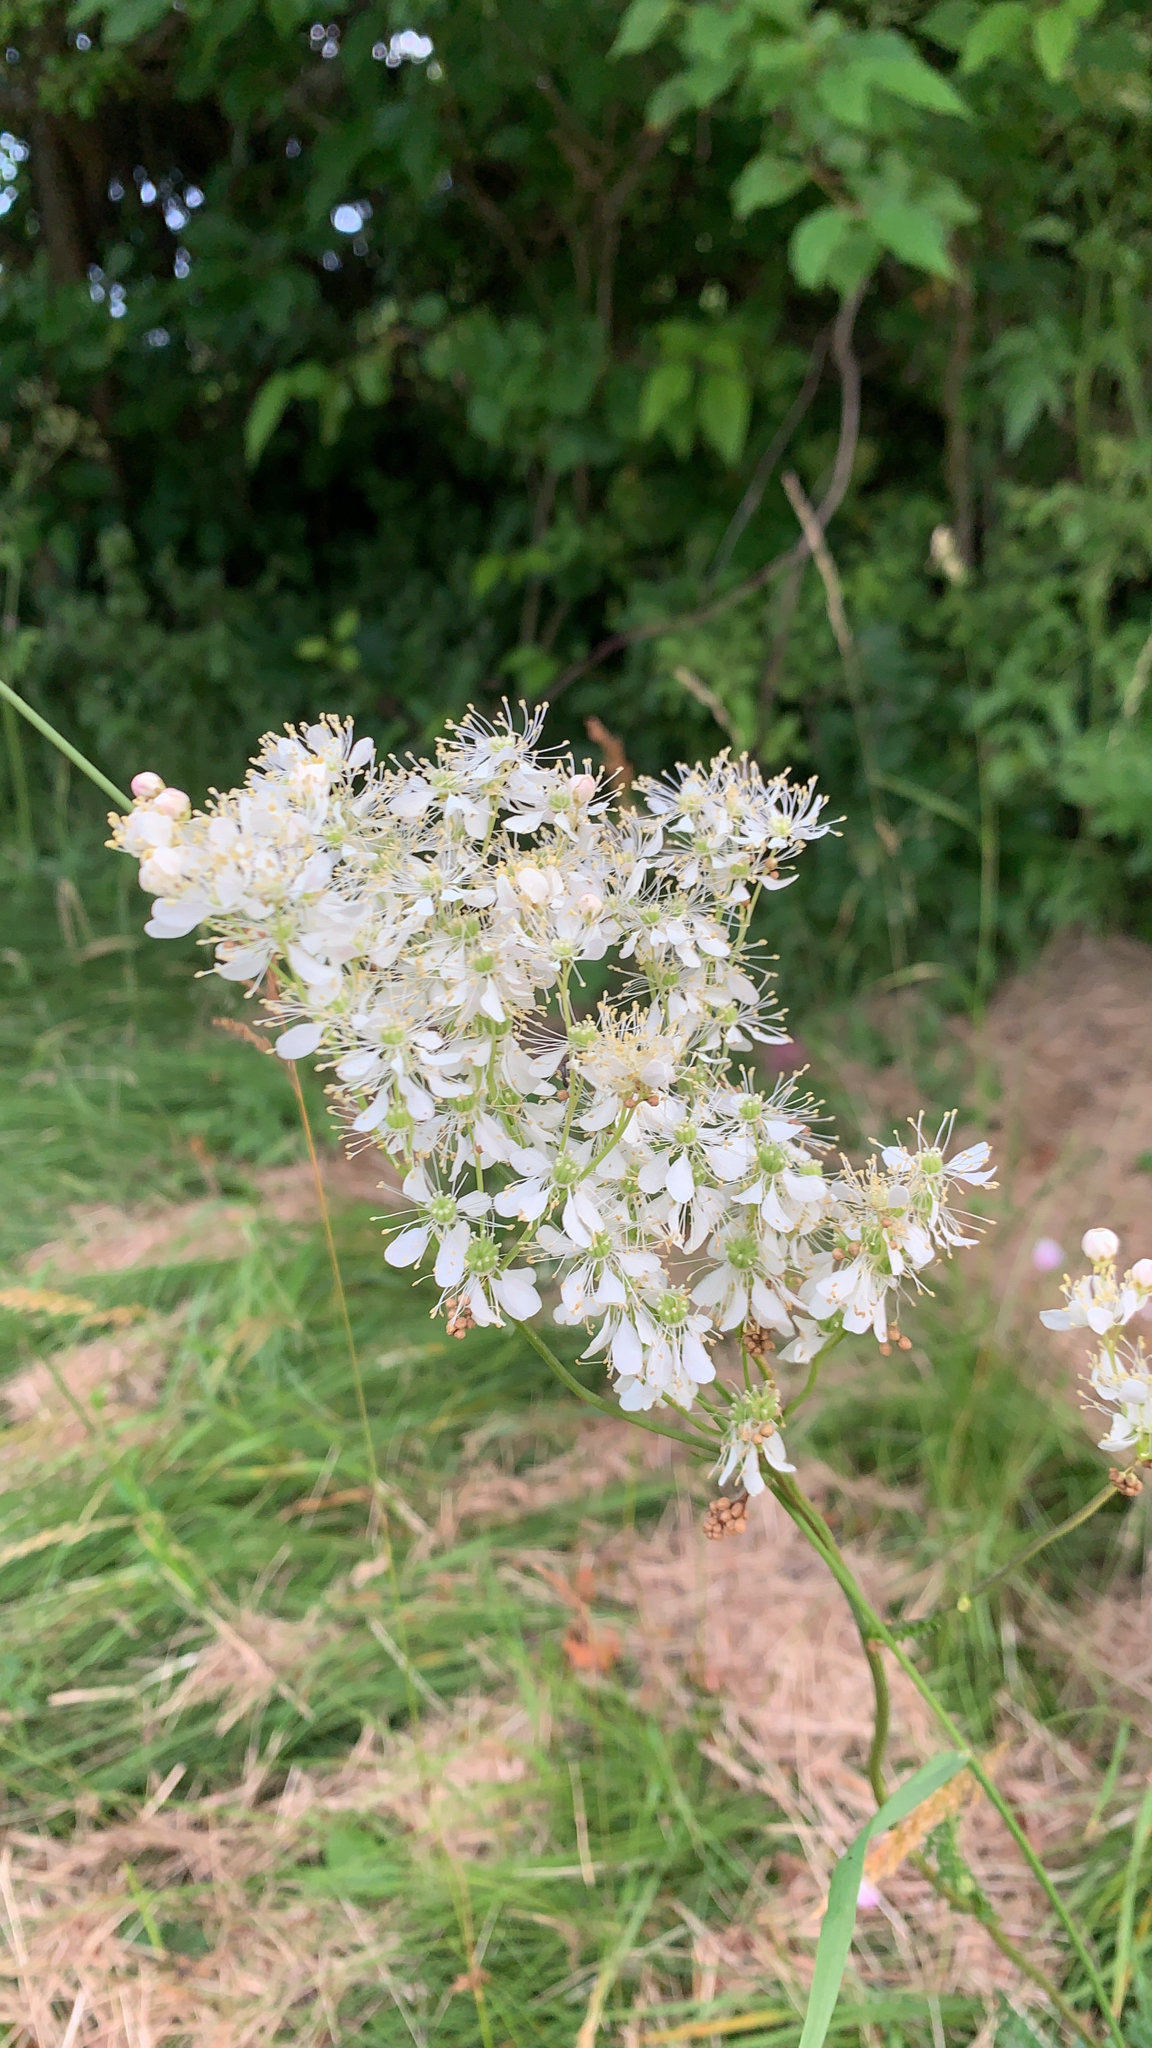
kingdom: Plantae
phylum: Tracheophyta
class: Magnoliopsida
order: Rosales
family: Rosaceae
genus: Filipendula
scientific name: Filipendula vulgaris
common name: Dropwort
